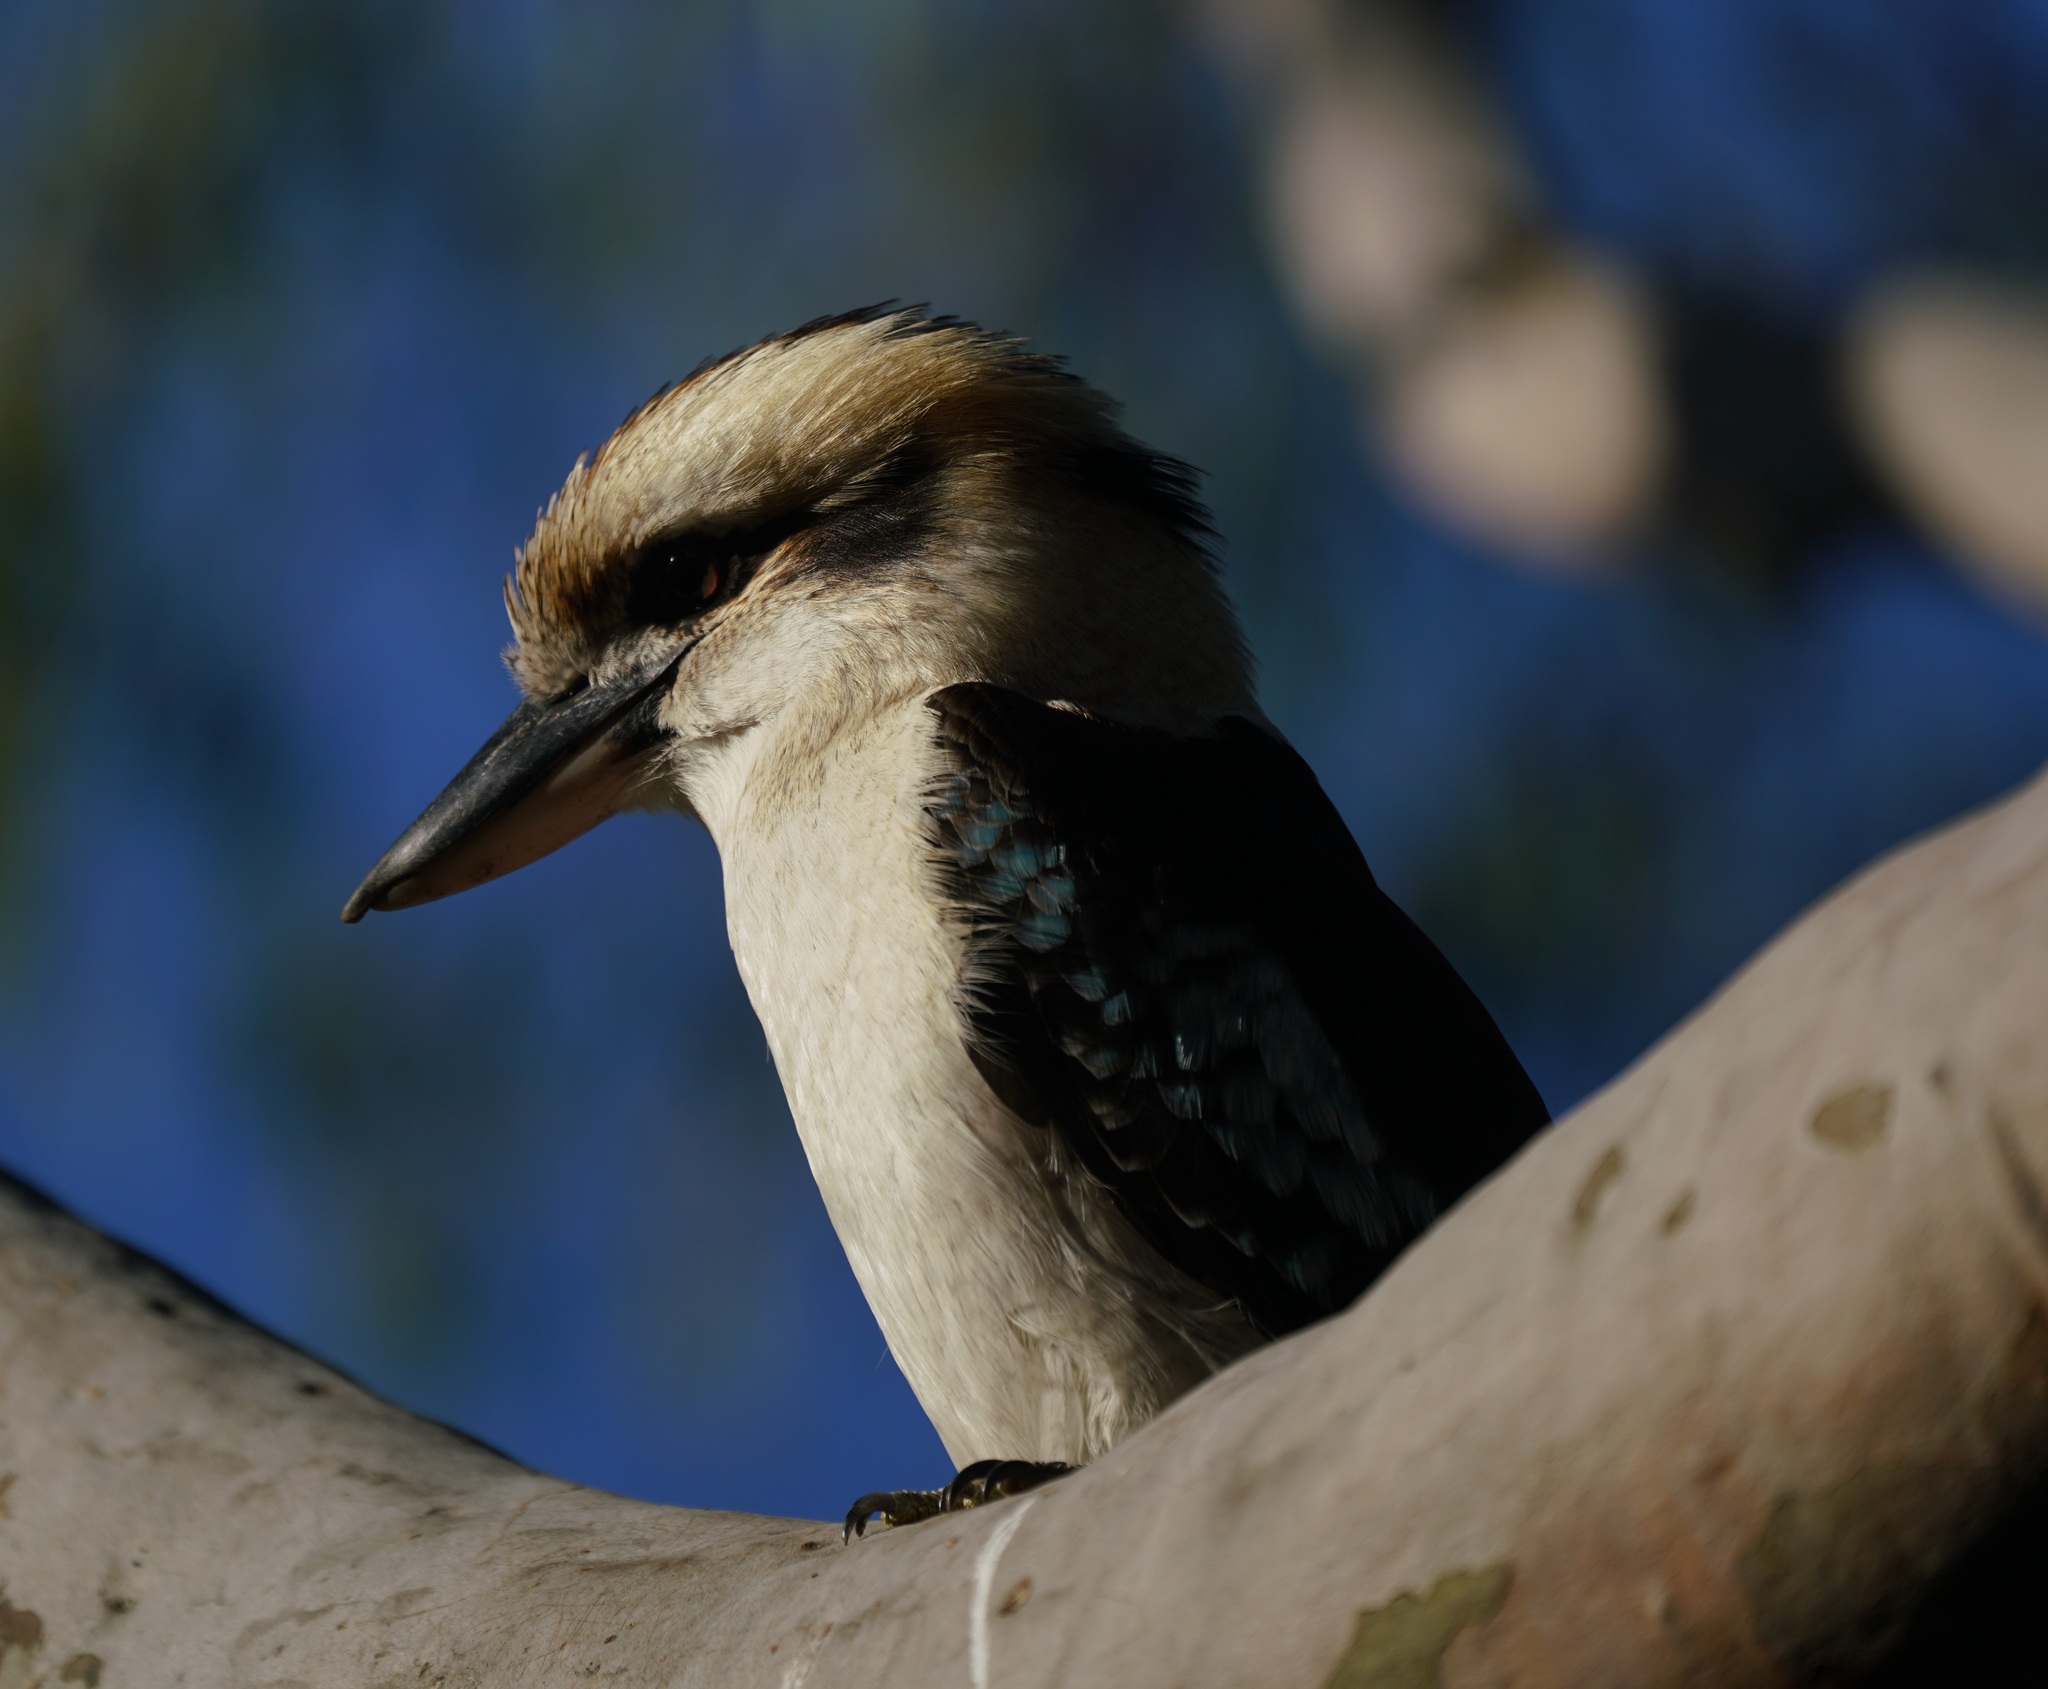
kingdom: Animalia
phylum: Chordata
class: Aves
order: Coraciiformes
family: Alcedinidae
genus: Dacelo
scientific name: Dacelo novaeguineae
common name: Laughing kookaburra
